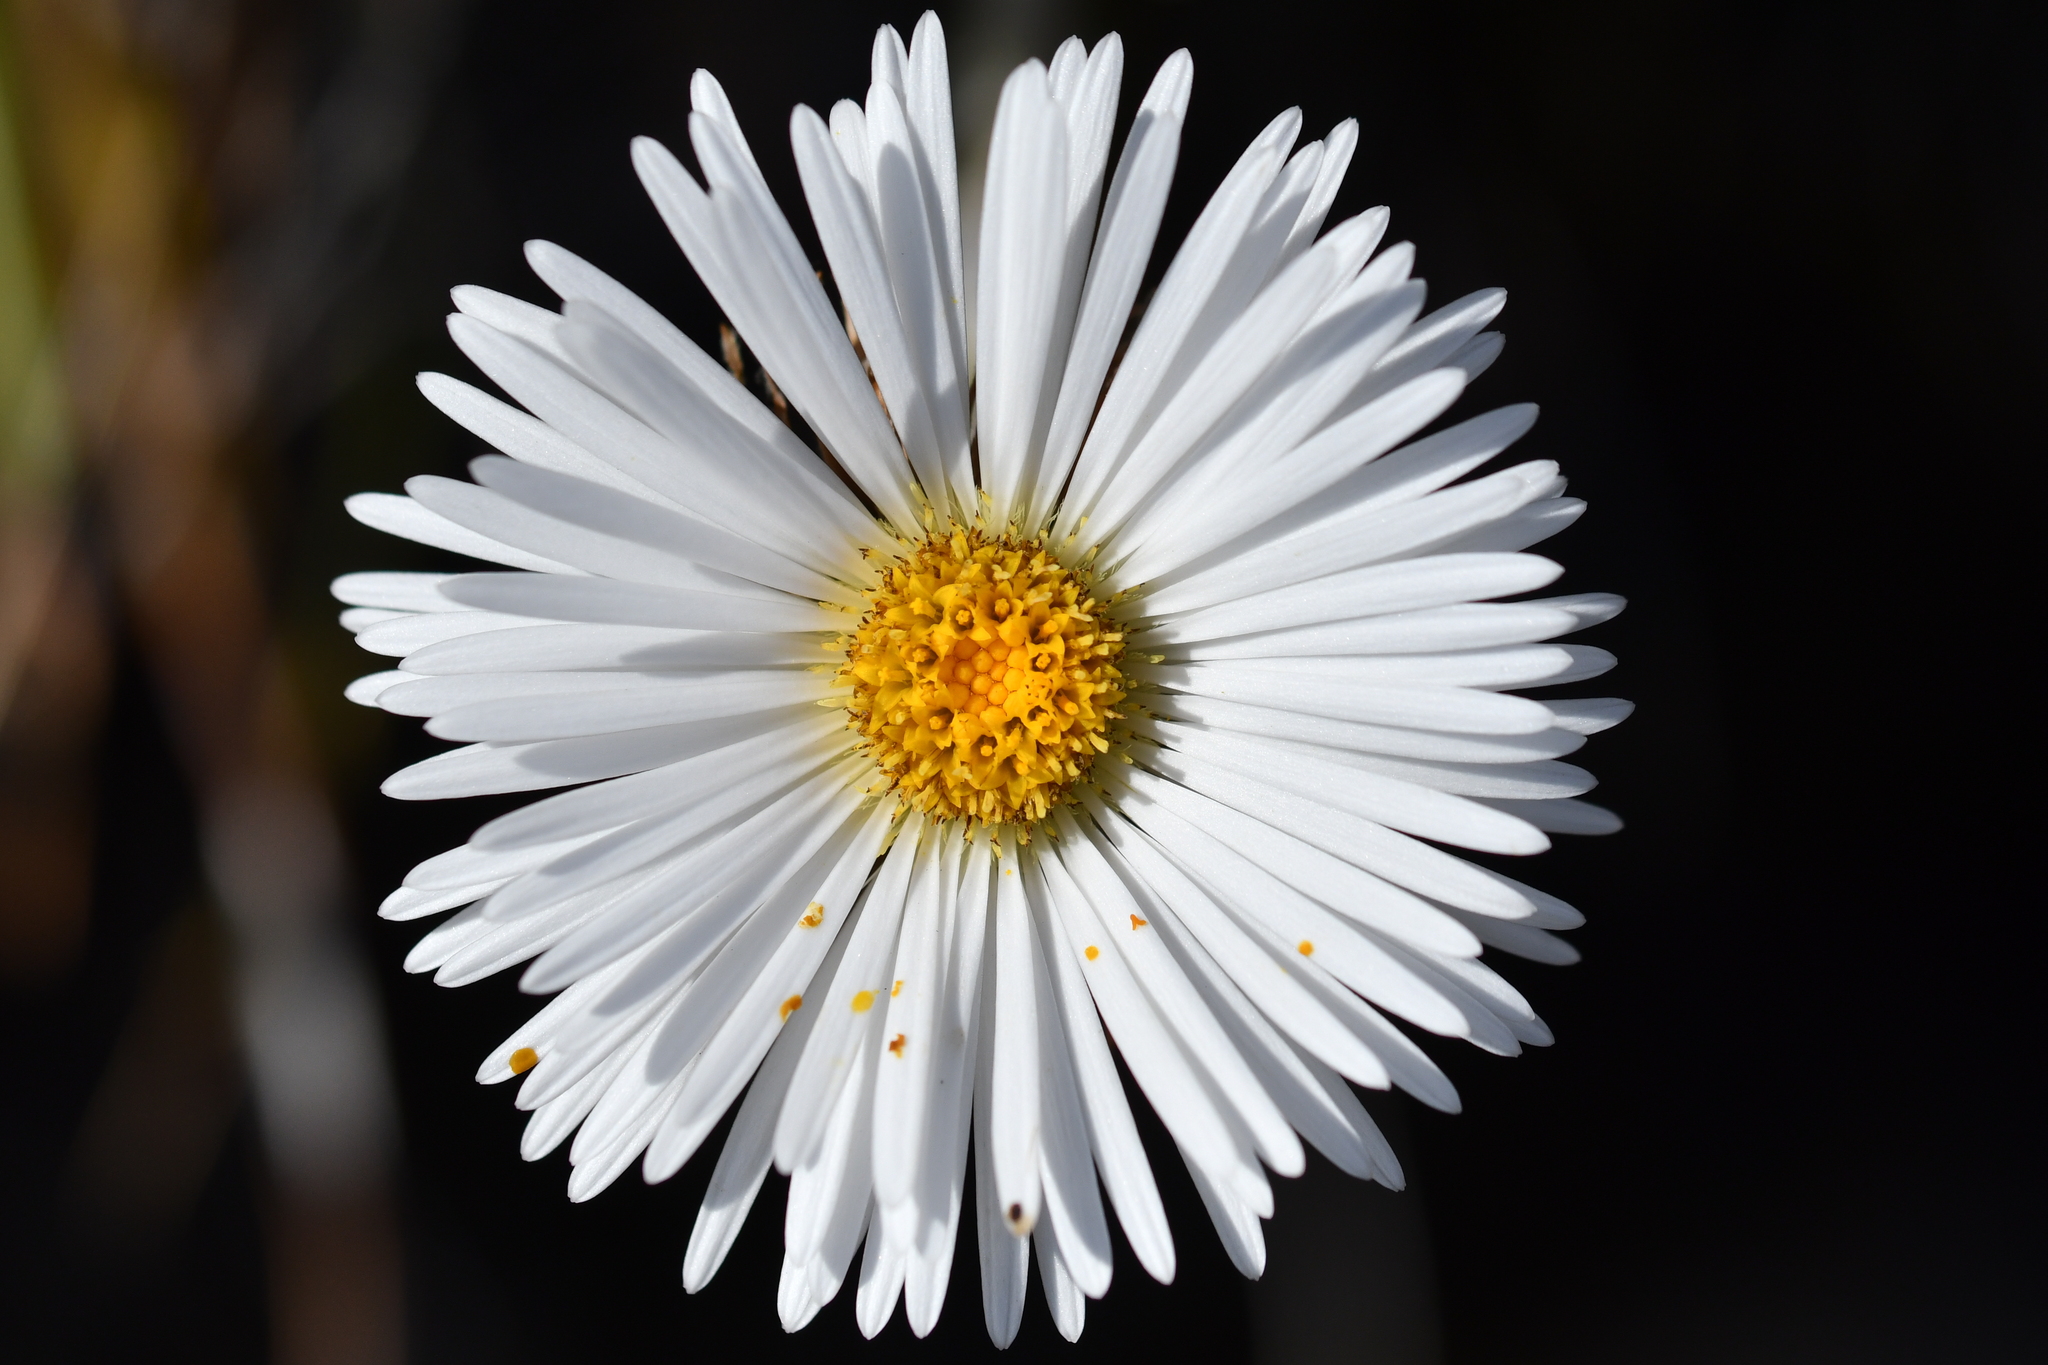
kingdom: Plantae
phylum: Tracheophyta
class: Magnoliopsida
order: Asterales
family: Asteraceae
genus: Celmisia
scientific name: Celmisia petriei
